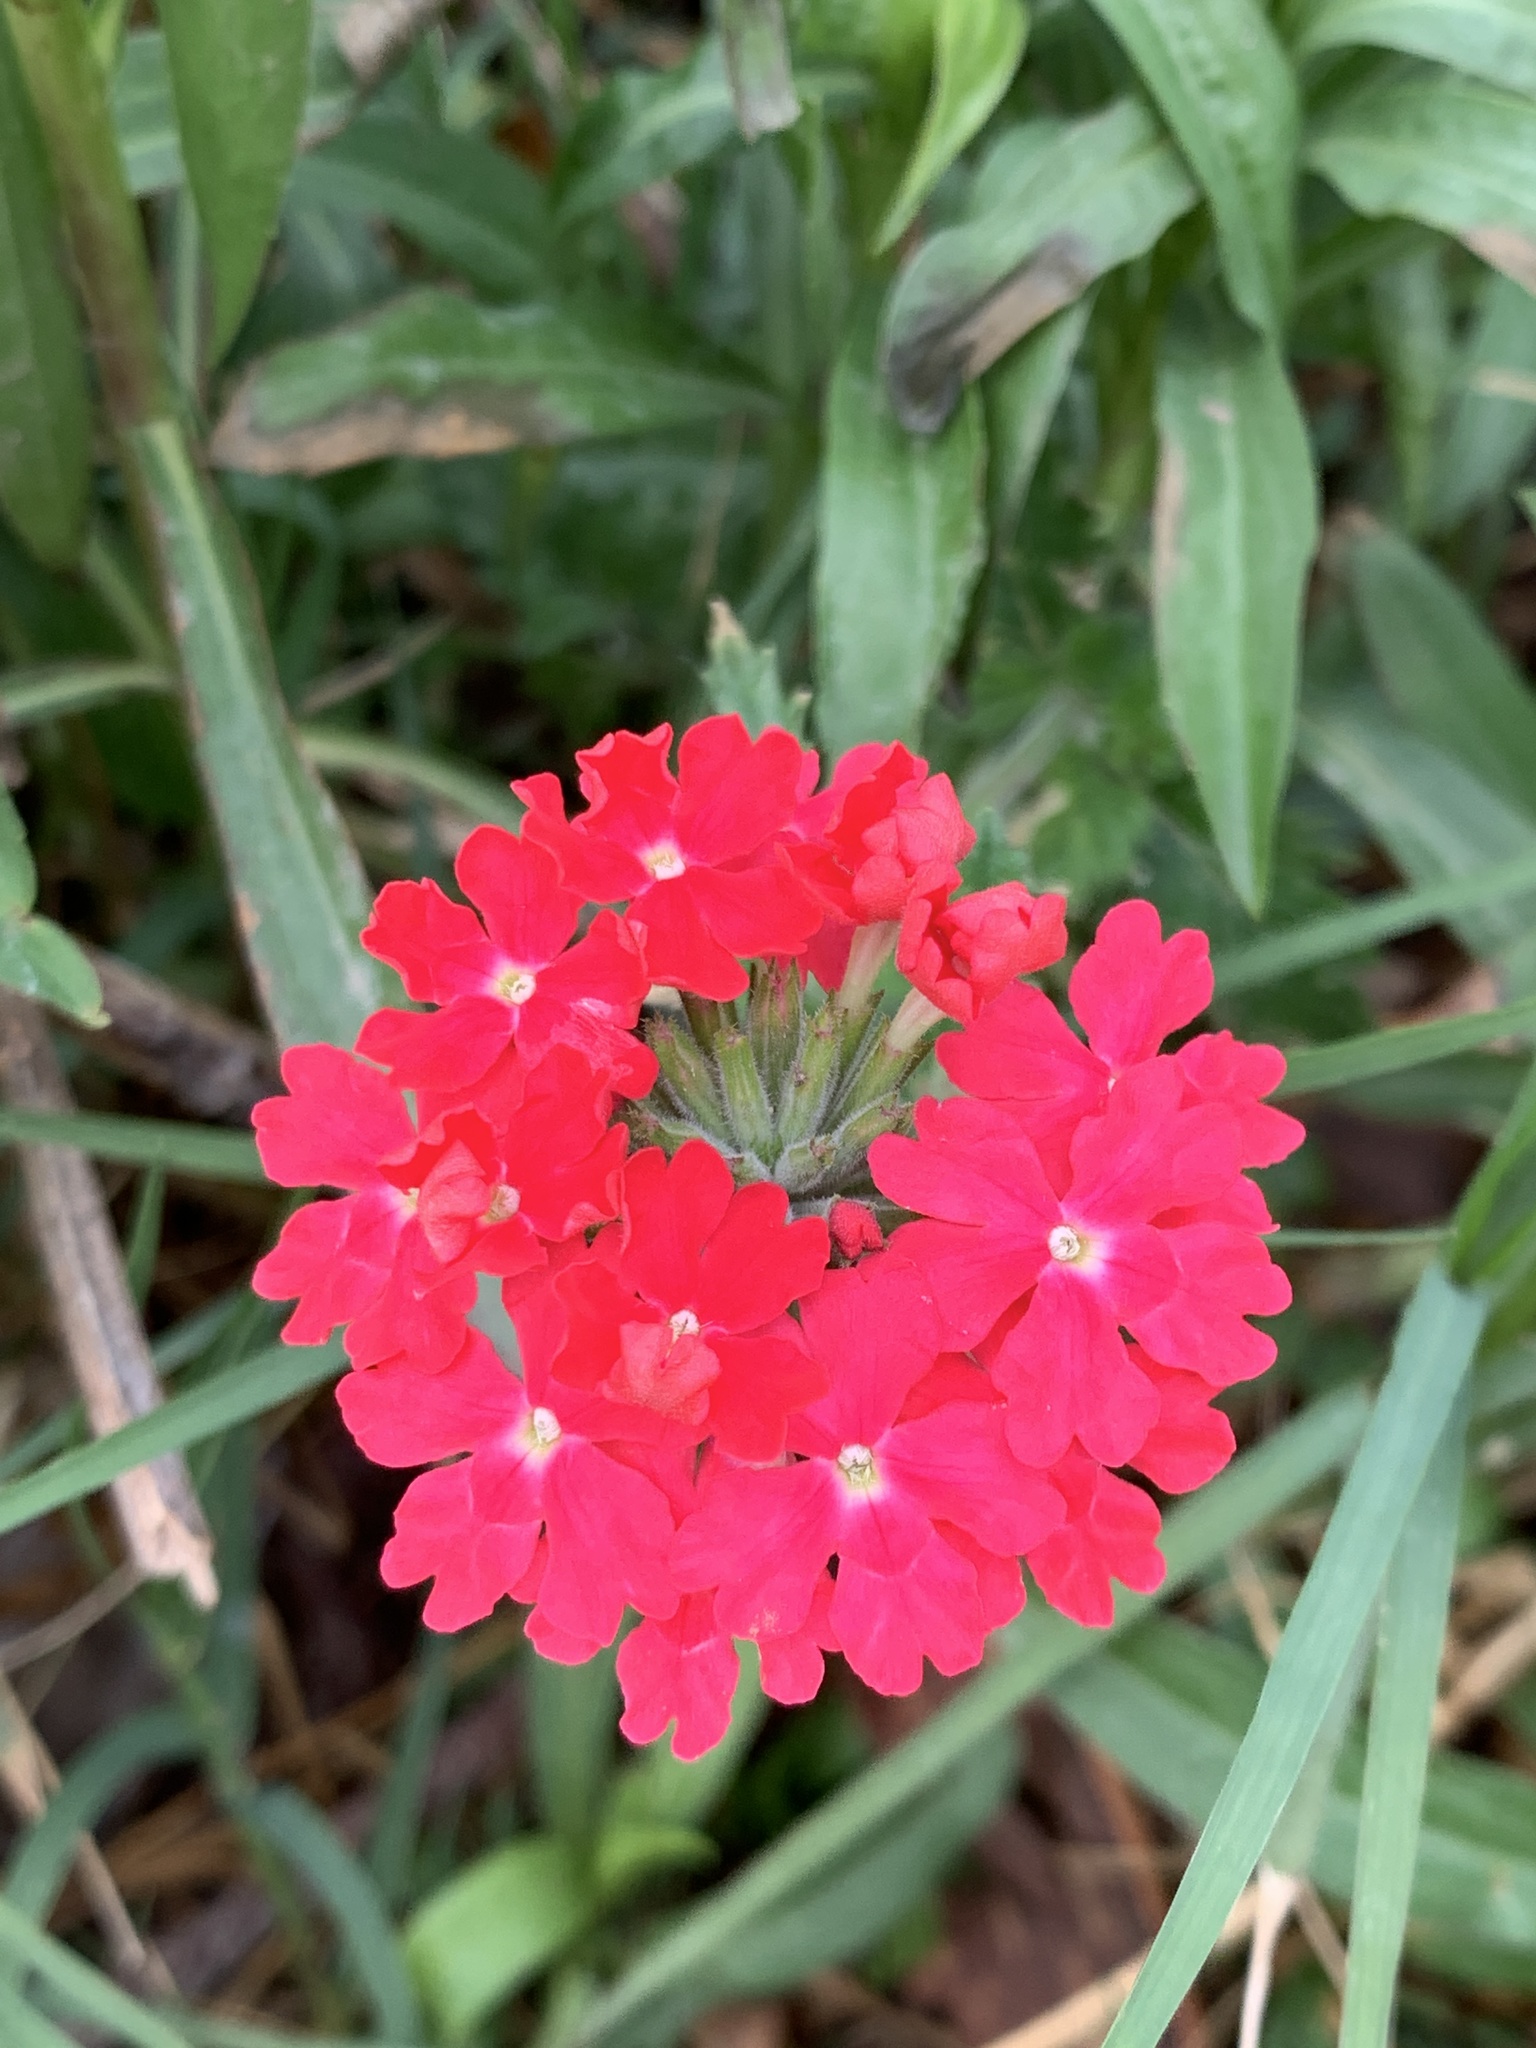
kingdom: Plantae
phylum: Tracheophyta
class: Magnoliopsida
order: Lamiales
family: Verbenaceae
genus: Verbena
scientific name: Verbena peruviana
